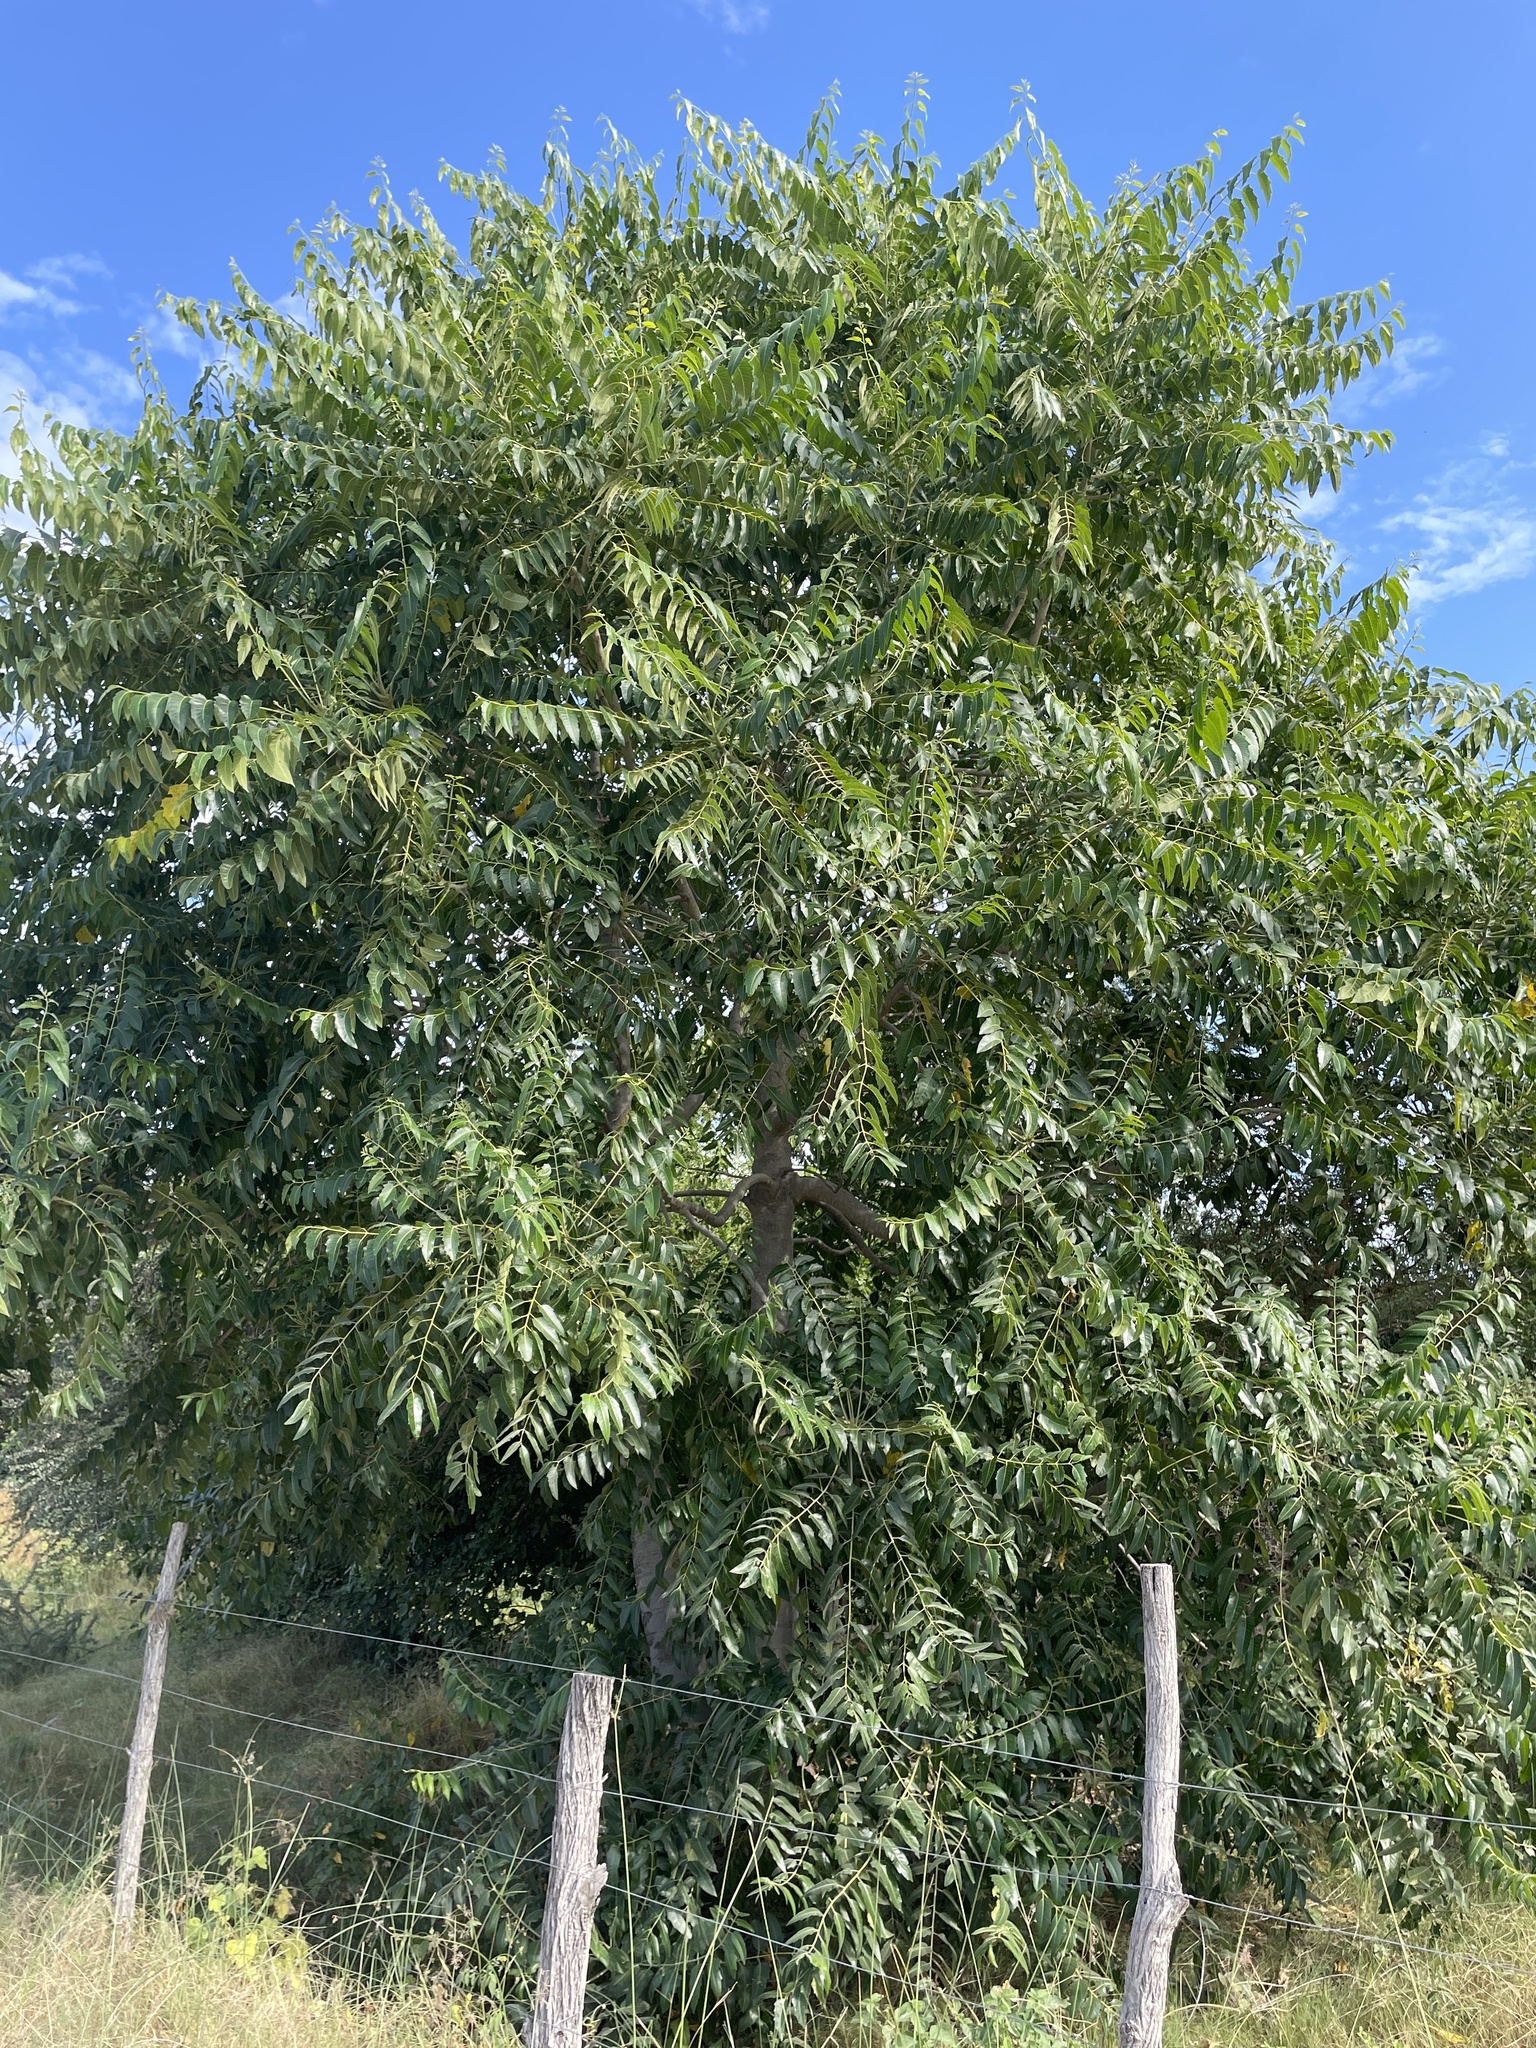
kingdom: Plantae
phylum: Tracheophyta
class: Magnoliopsida
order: Sapindales
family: Simaroubaceae
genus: Ailanthus
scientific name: Ailanthus excelsa
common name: Indian tree-of-heaven
